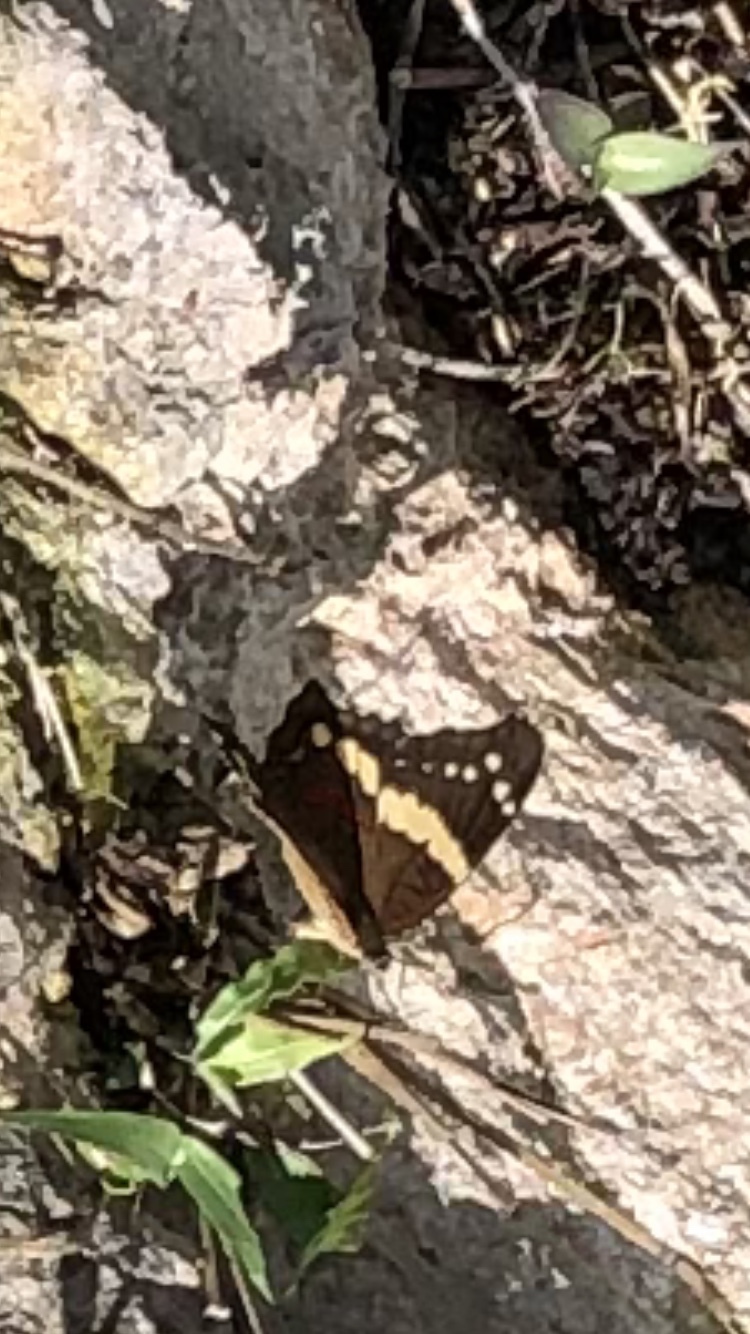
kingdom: Animalia
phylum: Arthropoda
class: Insecta
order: Lepidoptera
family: Nymphalidae
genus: Anartia
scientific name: Anartia fatima
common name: Banded peacock
